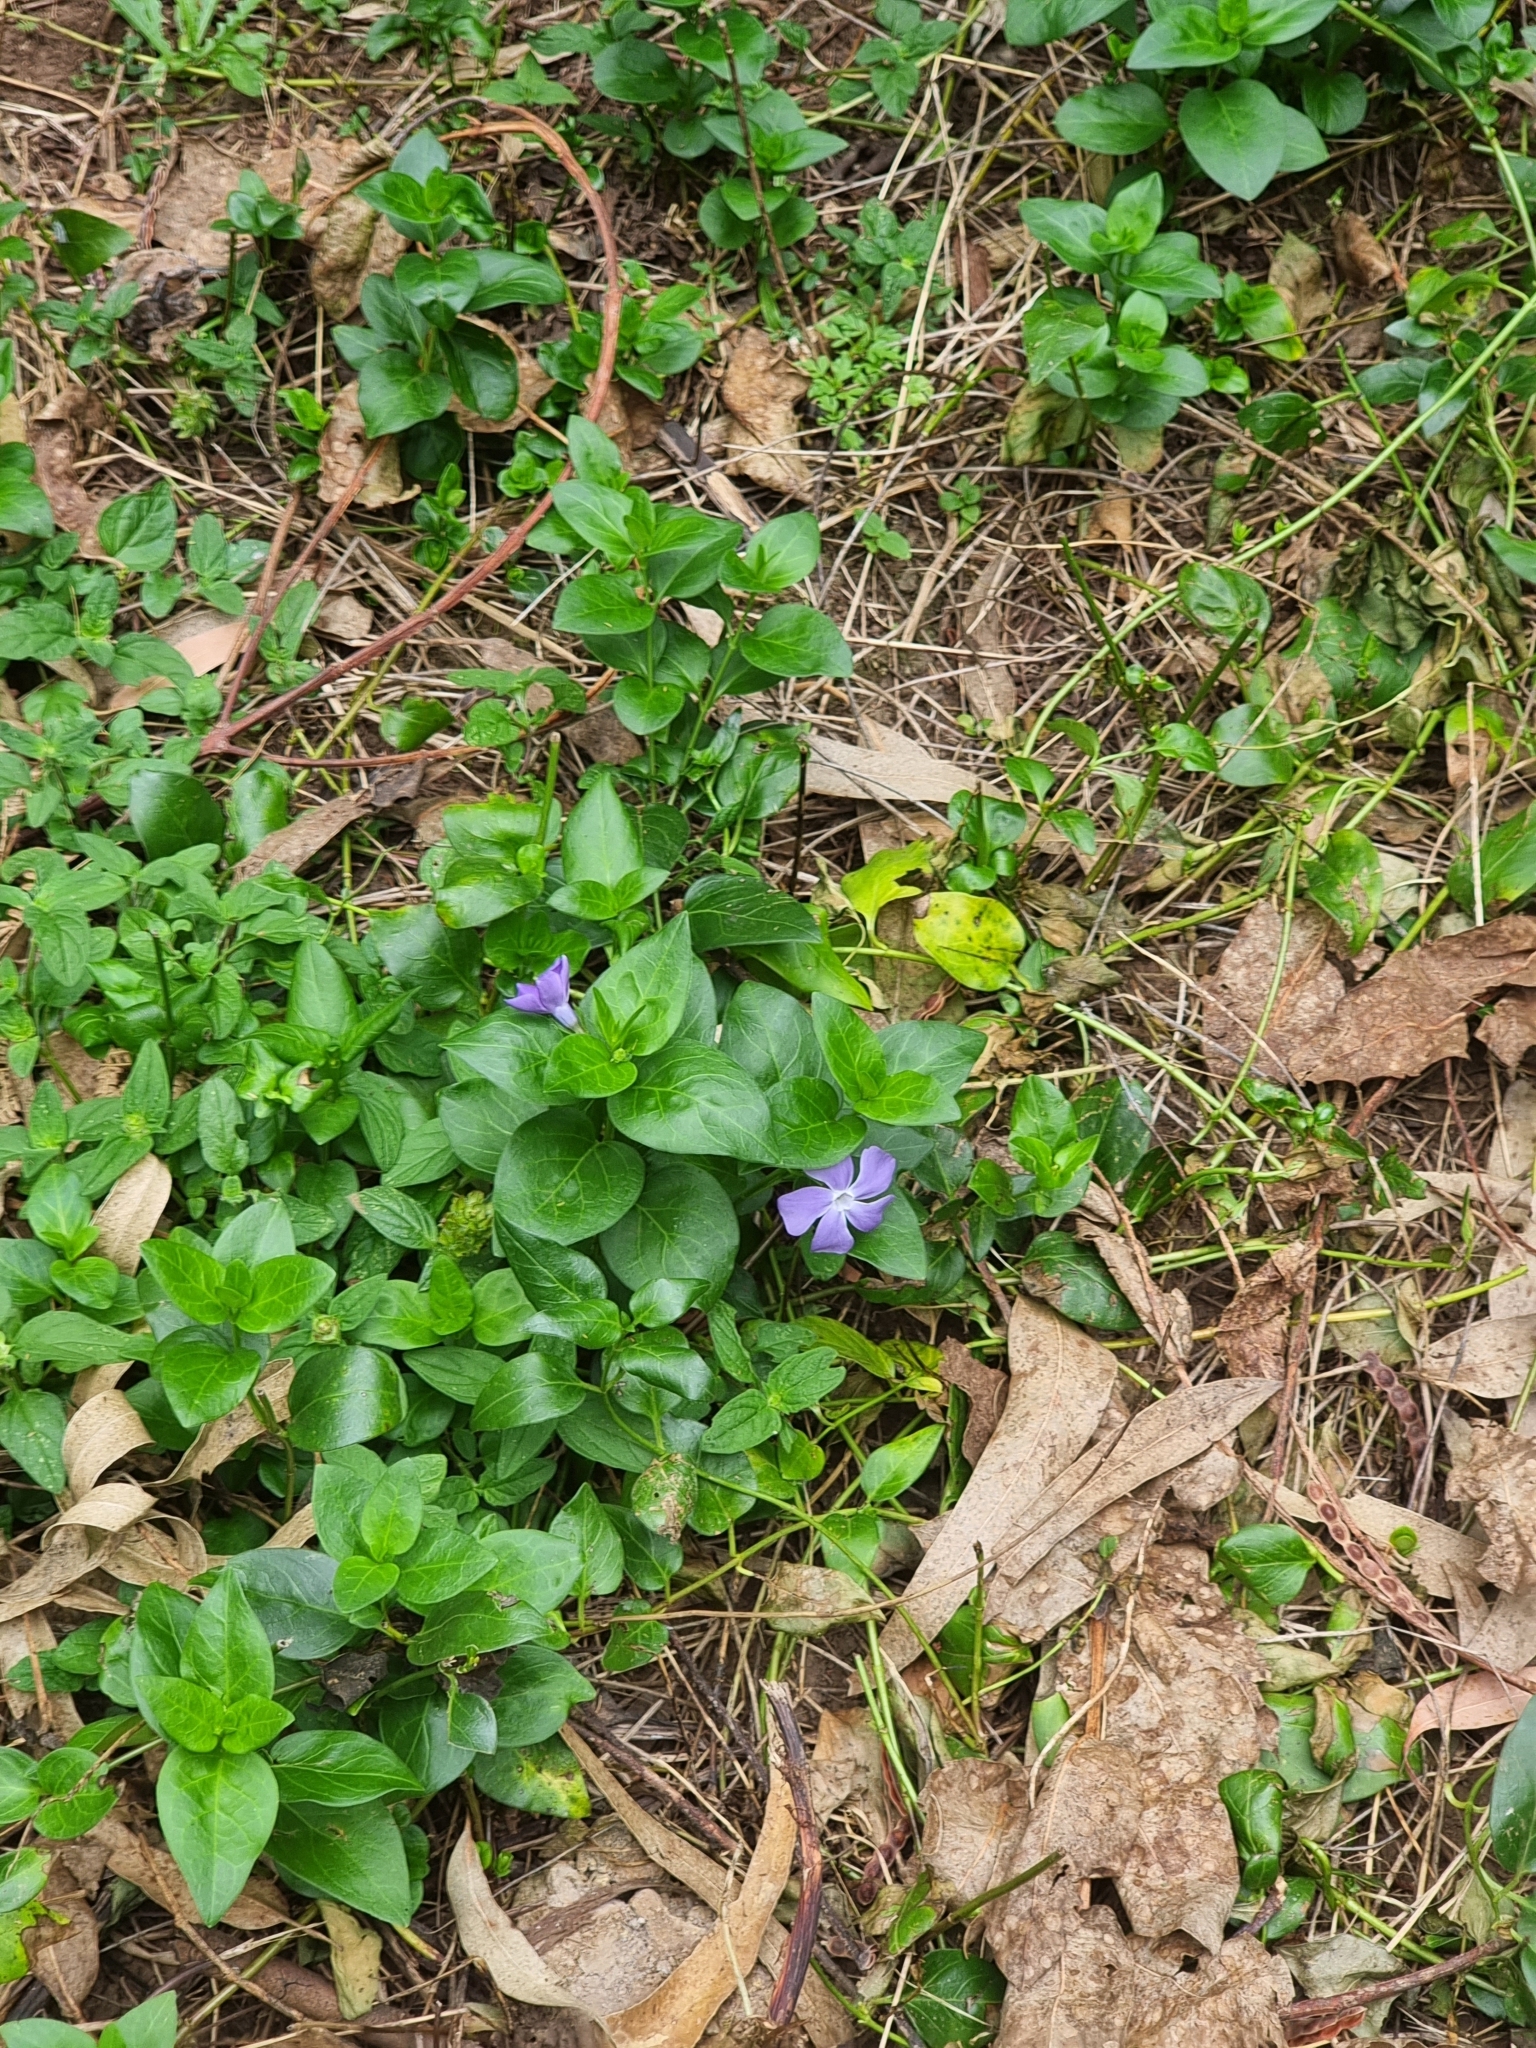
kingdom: Plantae
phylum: Tracheophyta
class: Magnoliopsida
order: Gentianales
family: Apocynaceae
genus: Vinca
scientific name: Vinca major
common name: Greater periwinkle
